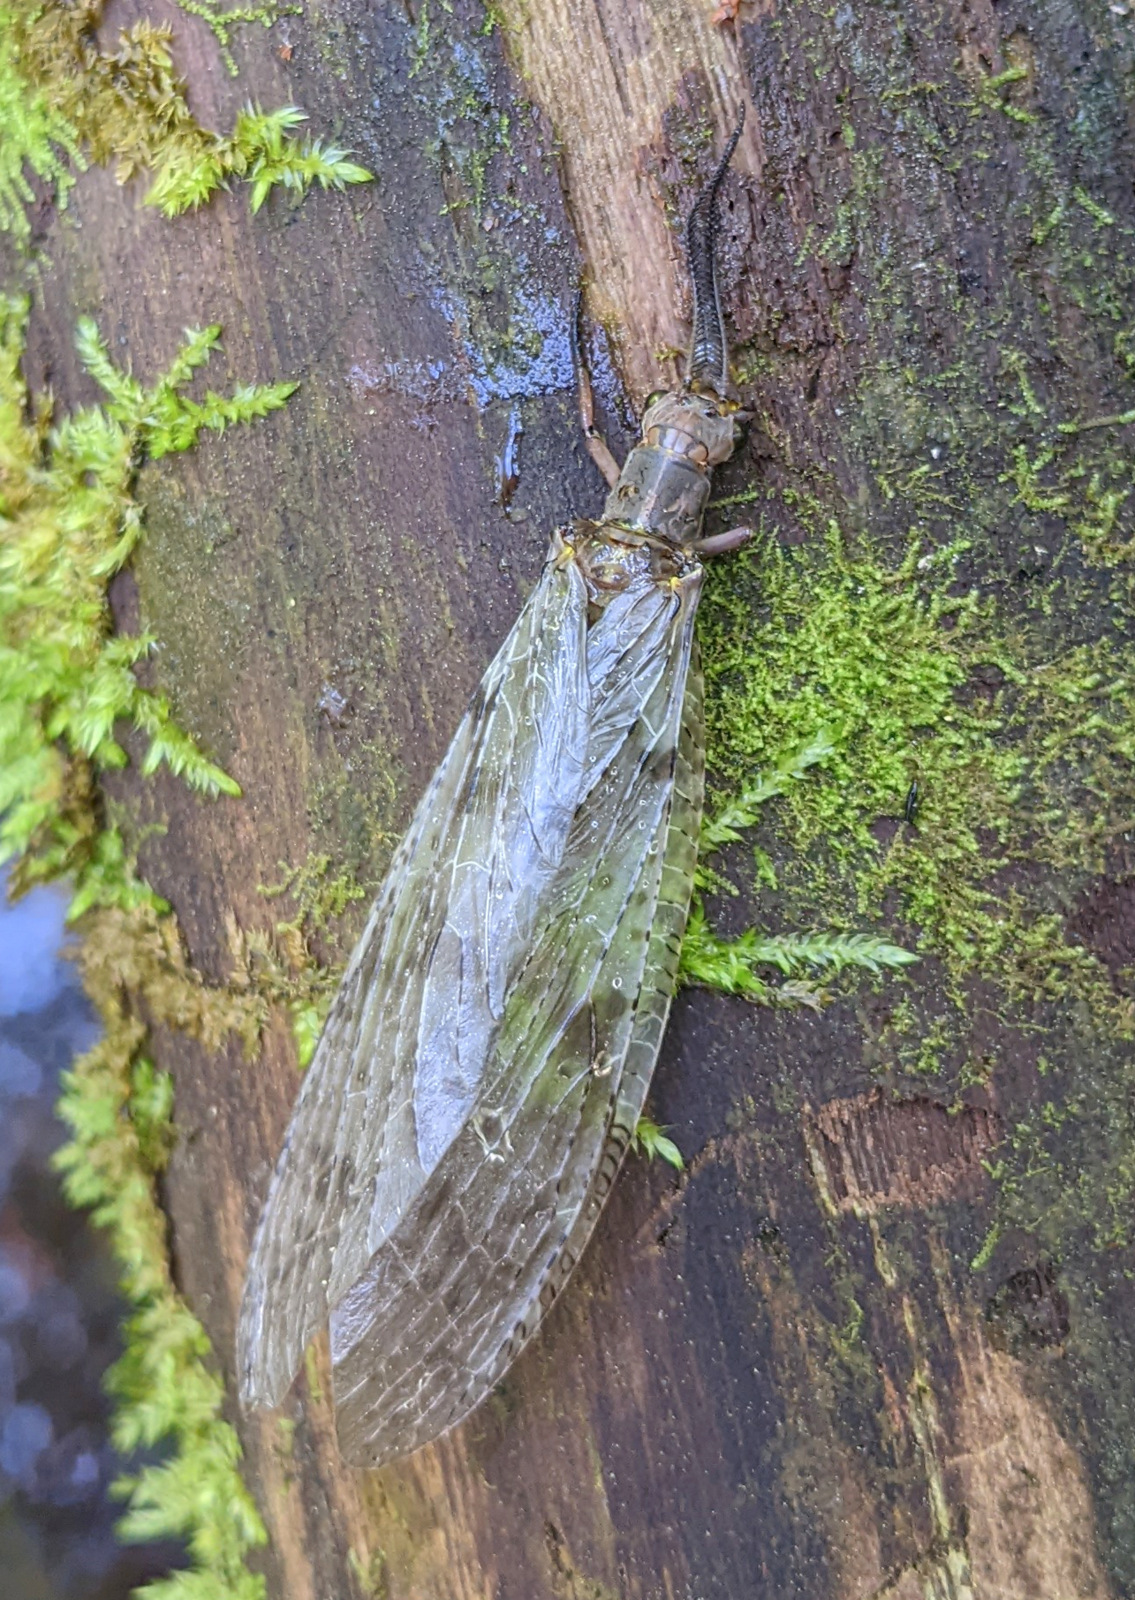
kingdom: Animalia
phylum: Arthropoda
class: Insecta
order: Megaloptera
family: Corydalidae
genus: Chauliodes
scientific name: Chauliodes pectinicornis
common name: Summer fishfly
